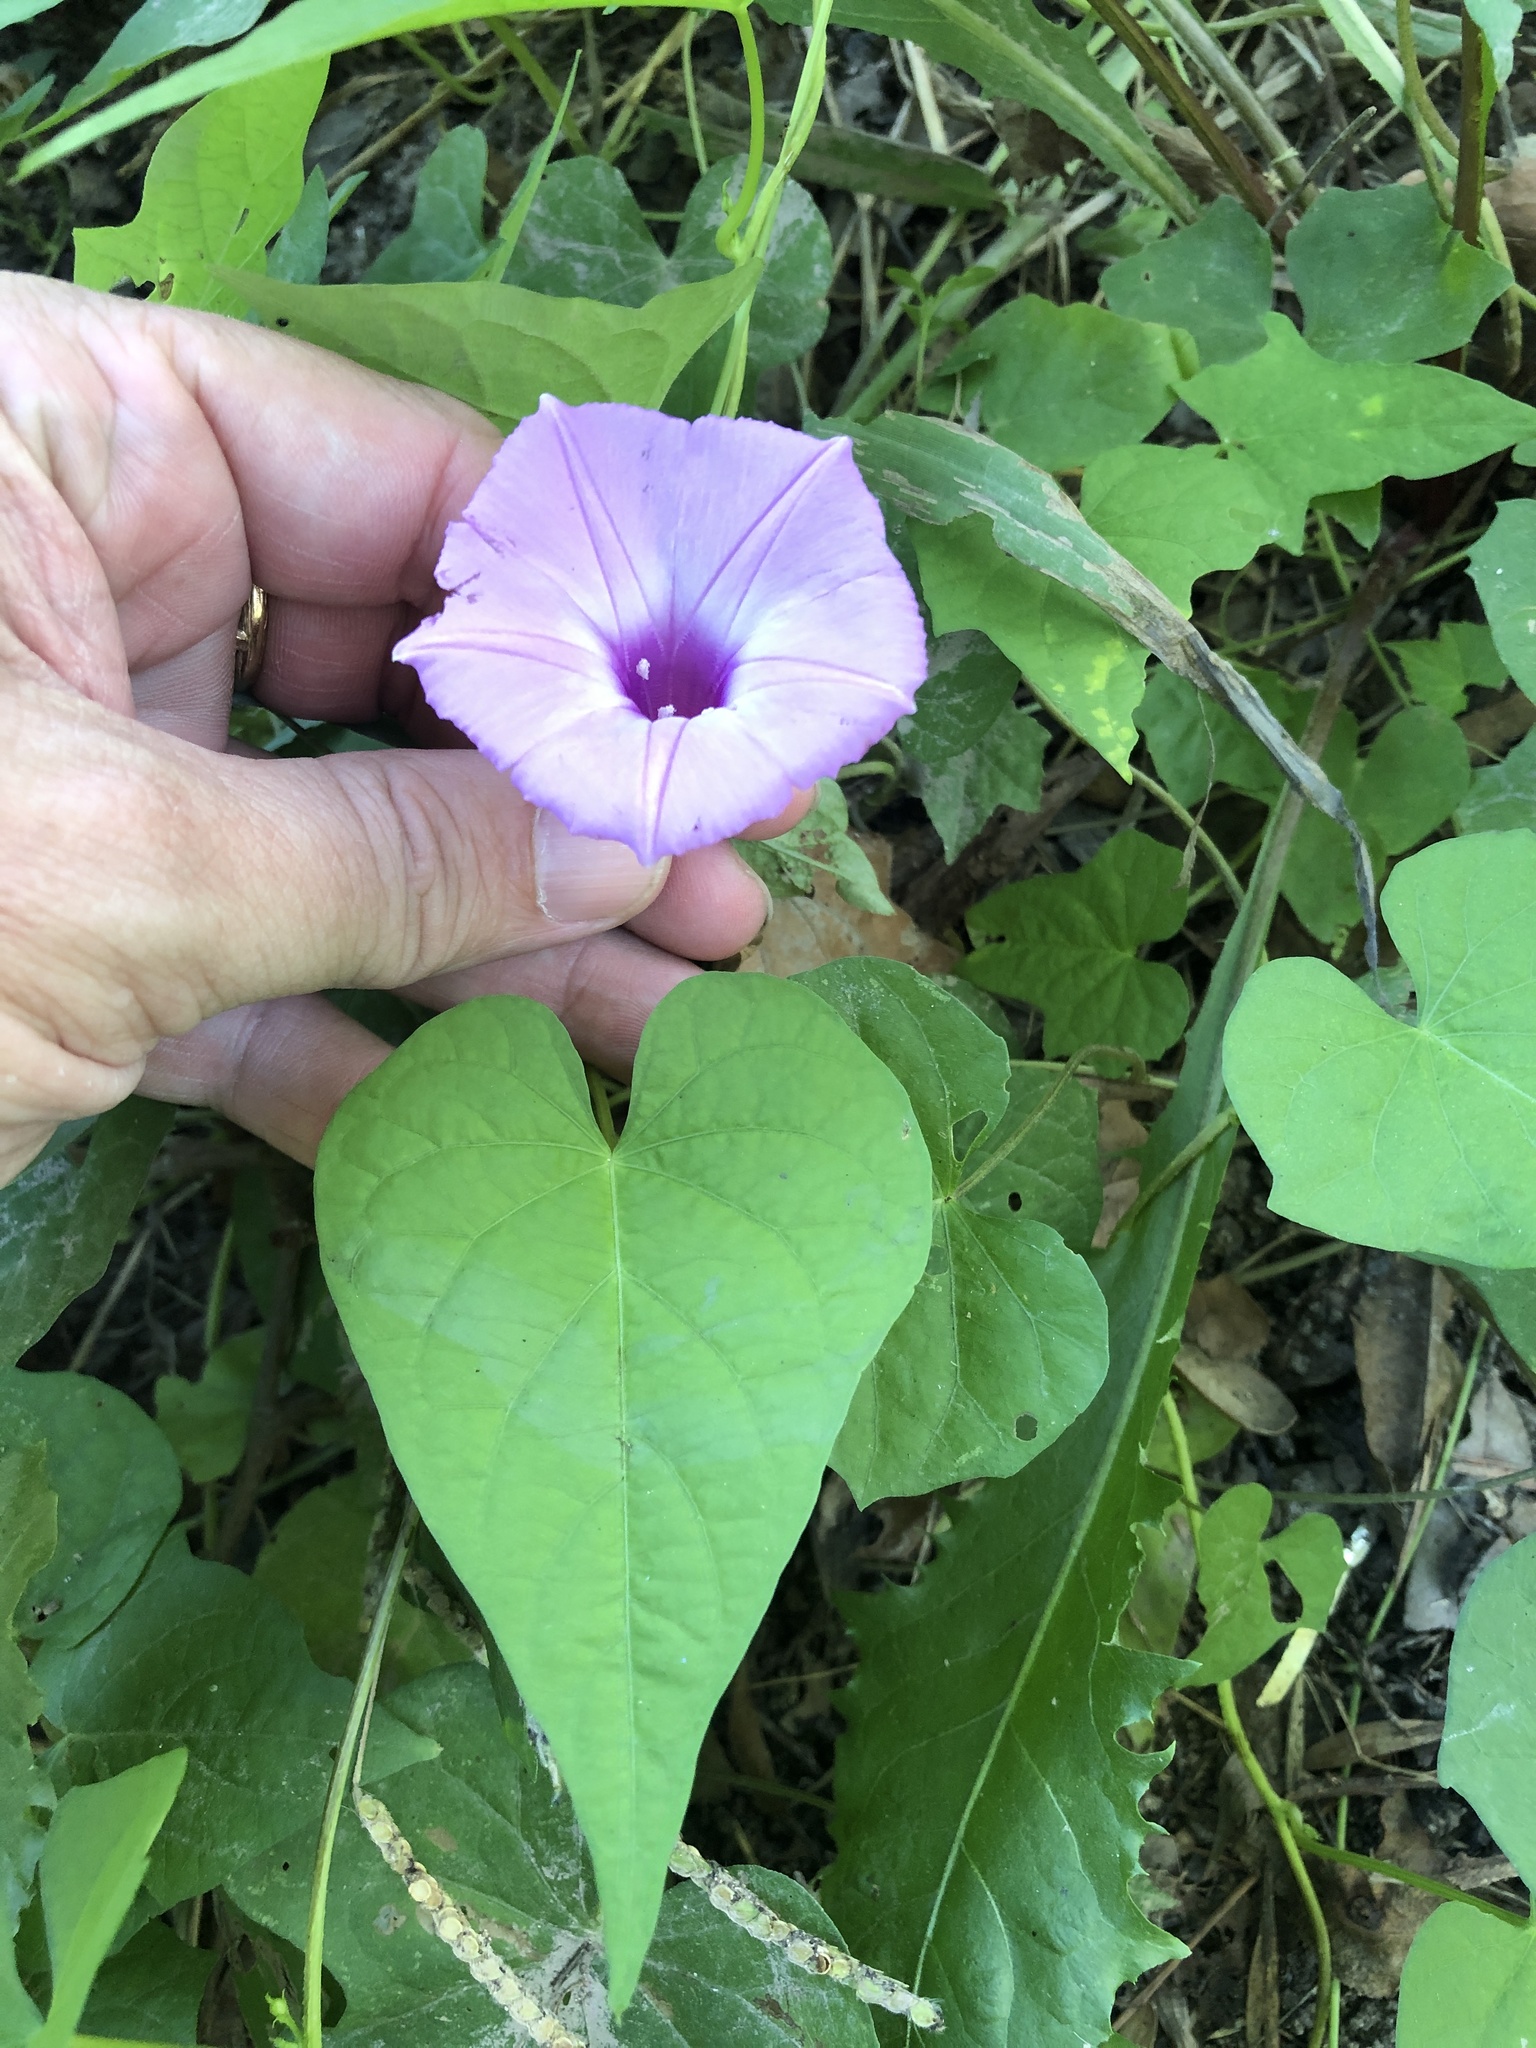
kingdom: Plantae
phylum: Tracheophyta
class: Magnoliopsida
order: Solanales
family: Convolvulaceae
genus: Ipomoea
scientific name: Ipomoea cordatotriloba
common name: Cotton morning glory
